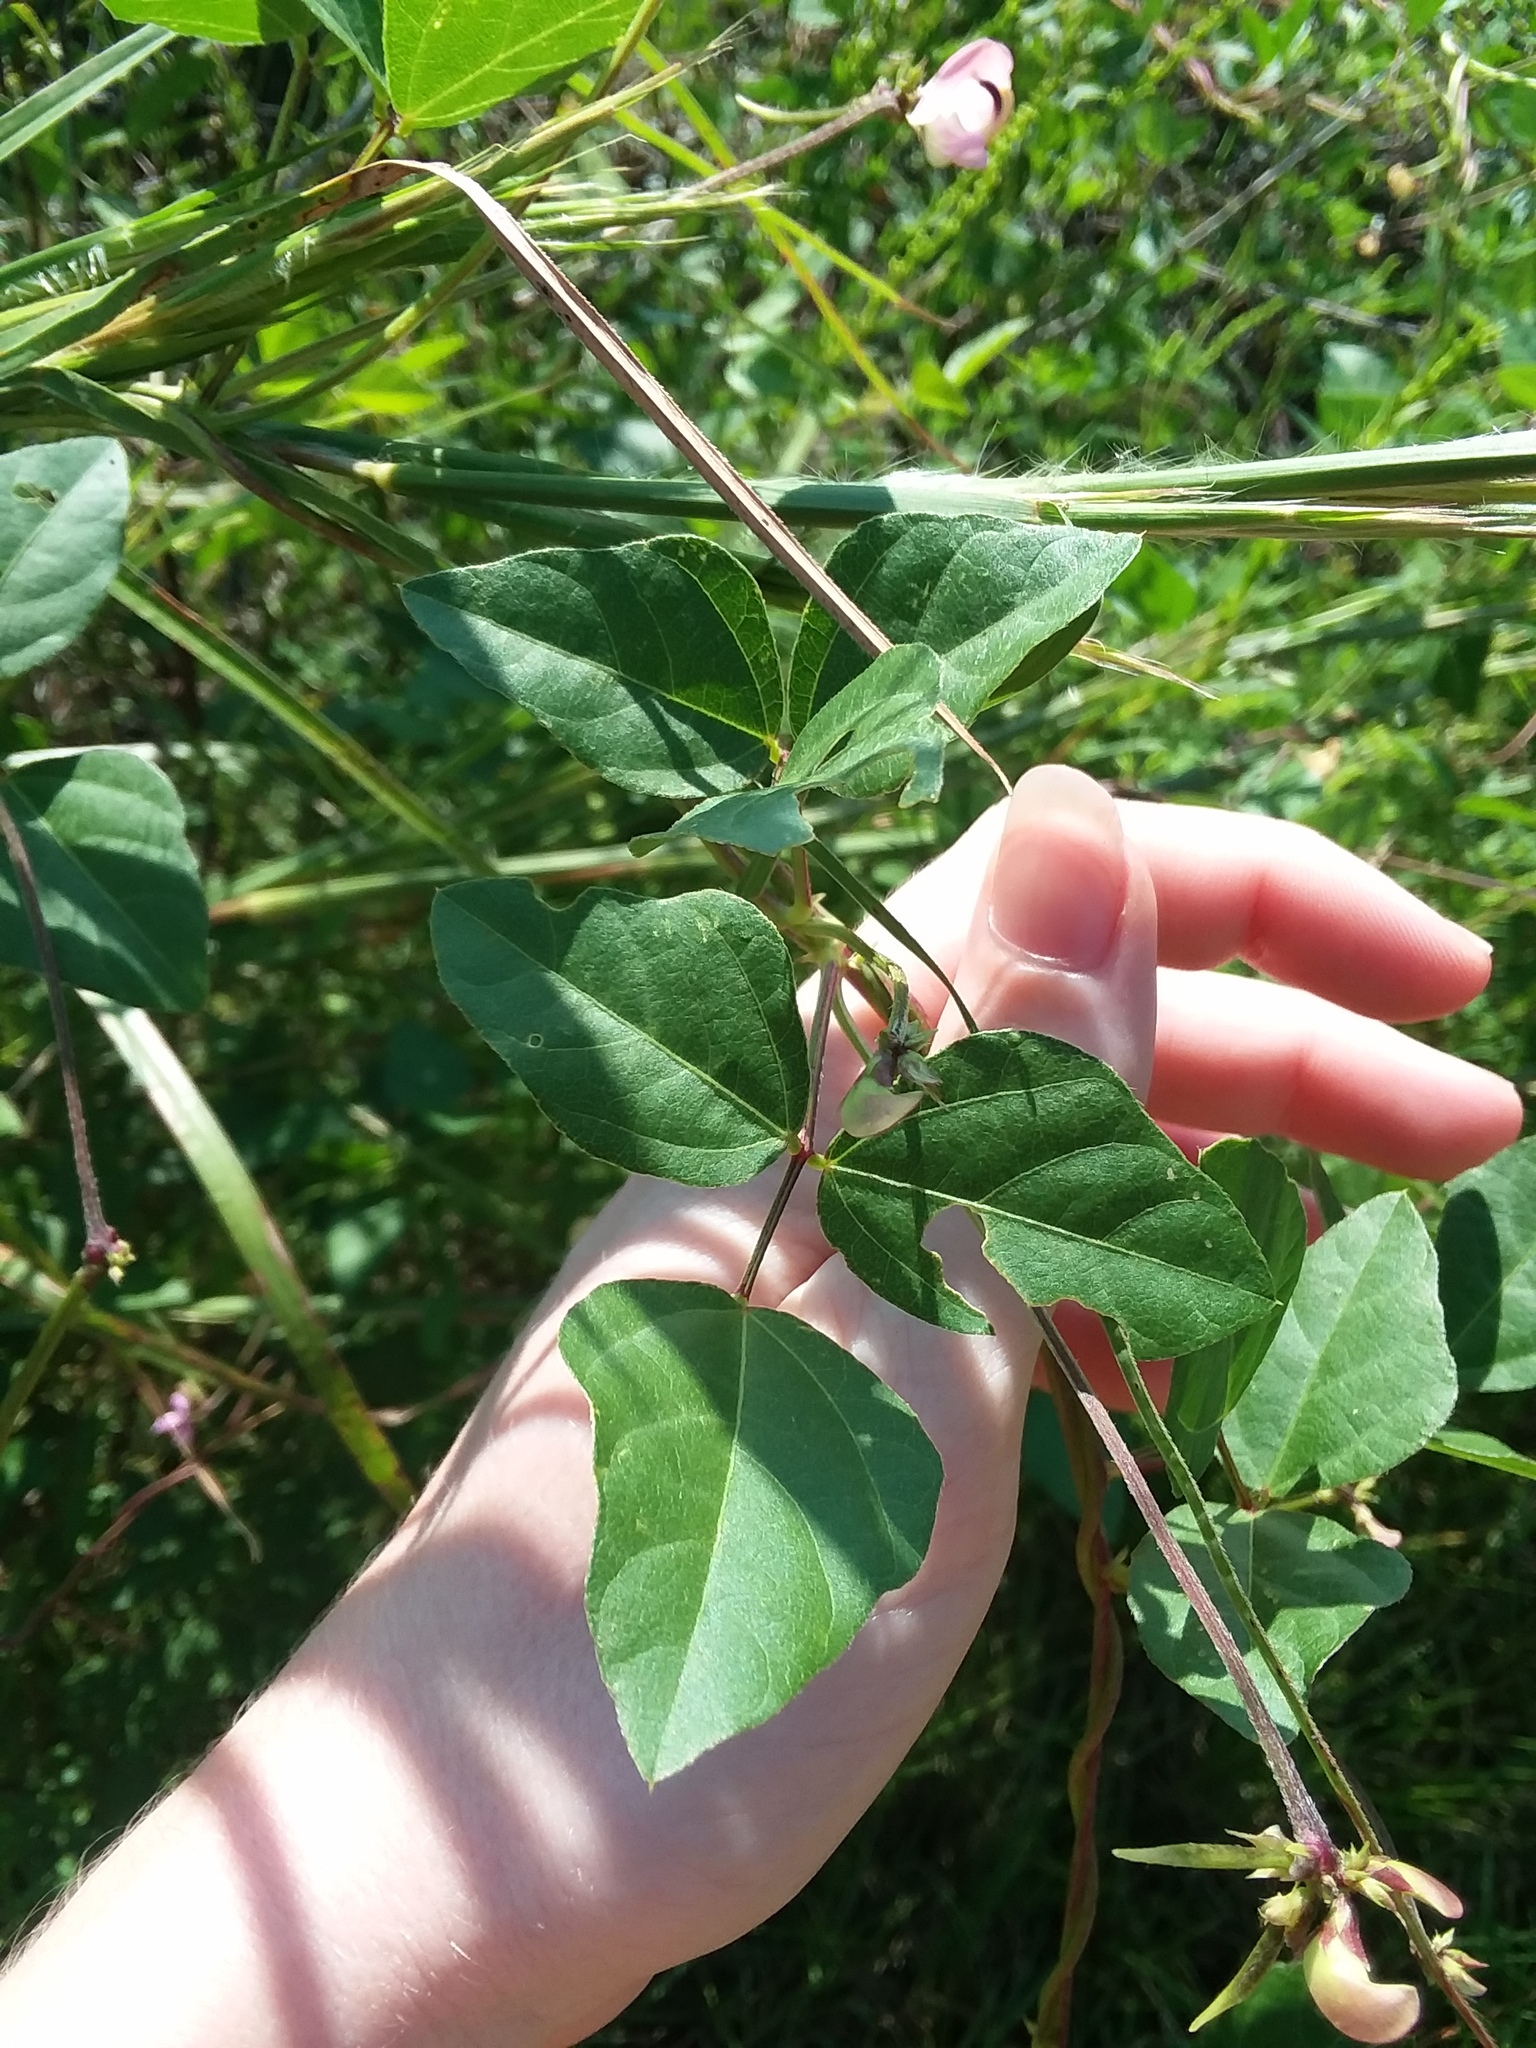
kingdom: Plantae
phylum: Tracheophyta
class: Magnoliopsida
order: Fabales
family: Fabaceae
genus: Strophostyles
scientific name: Strophostyles helvola
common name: Trailing wild bean
